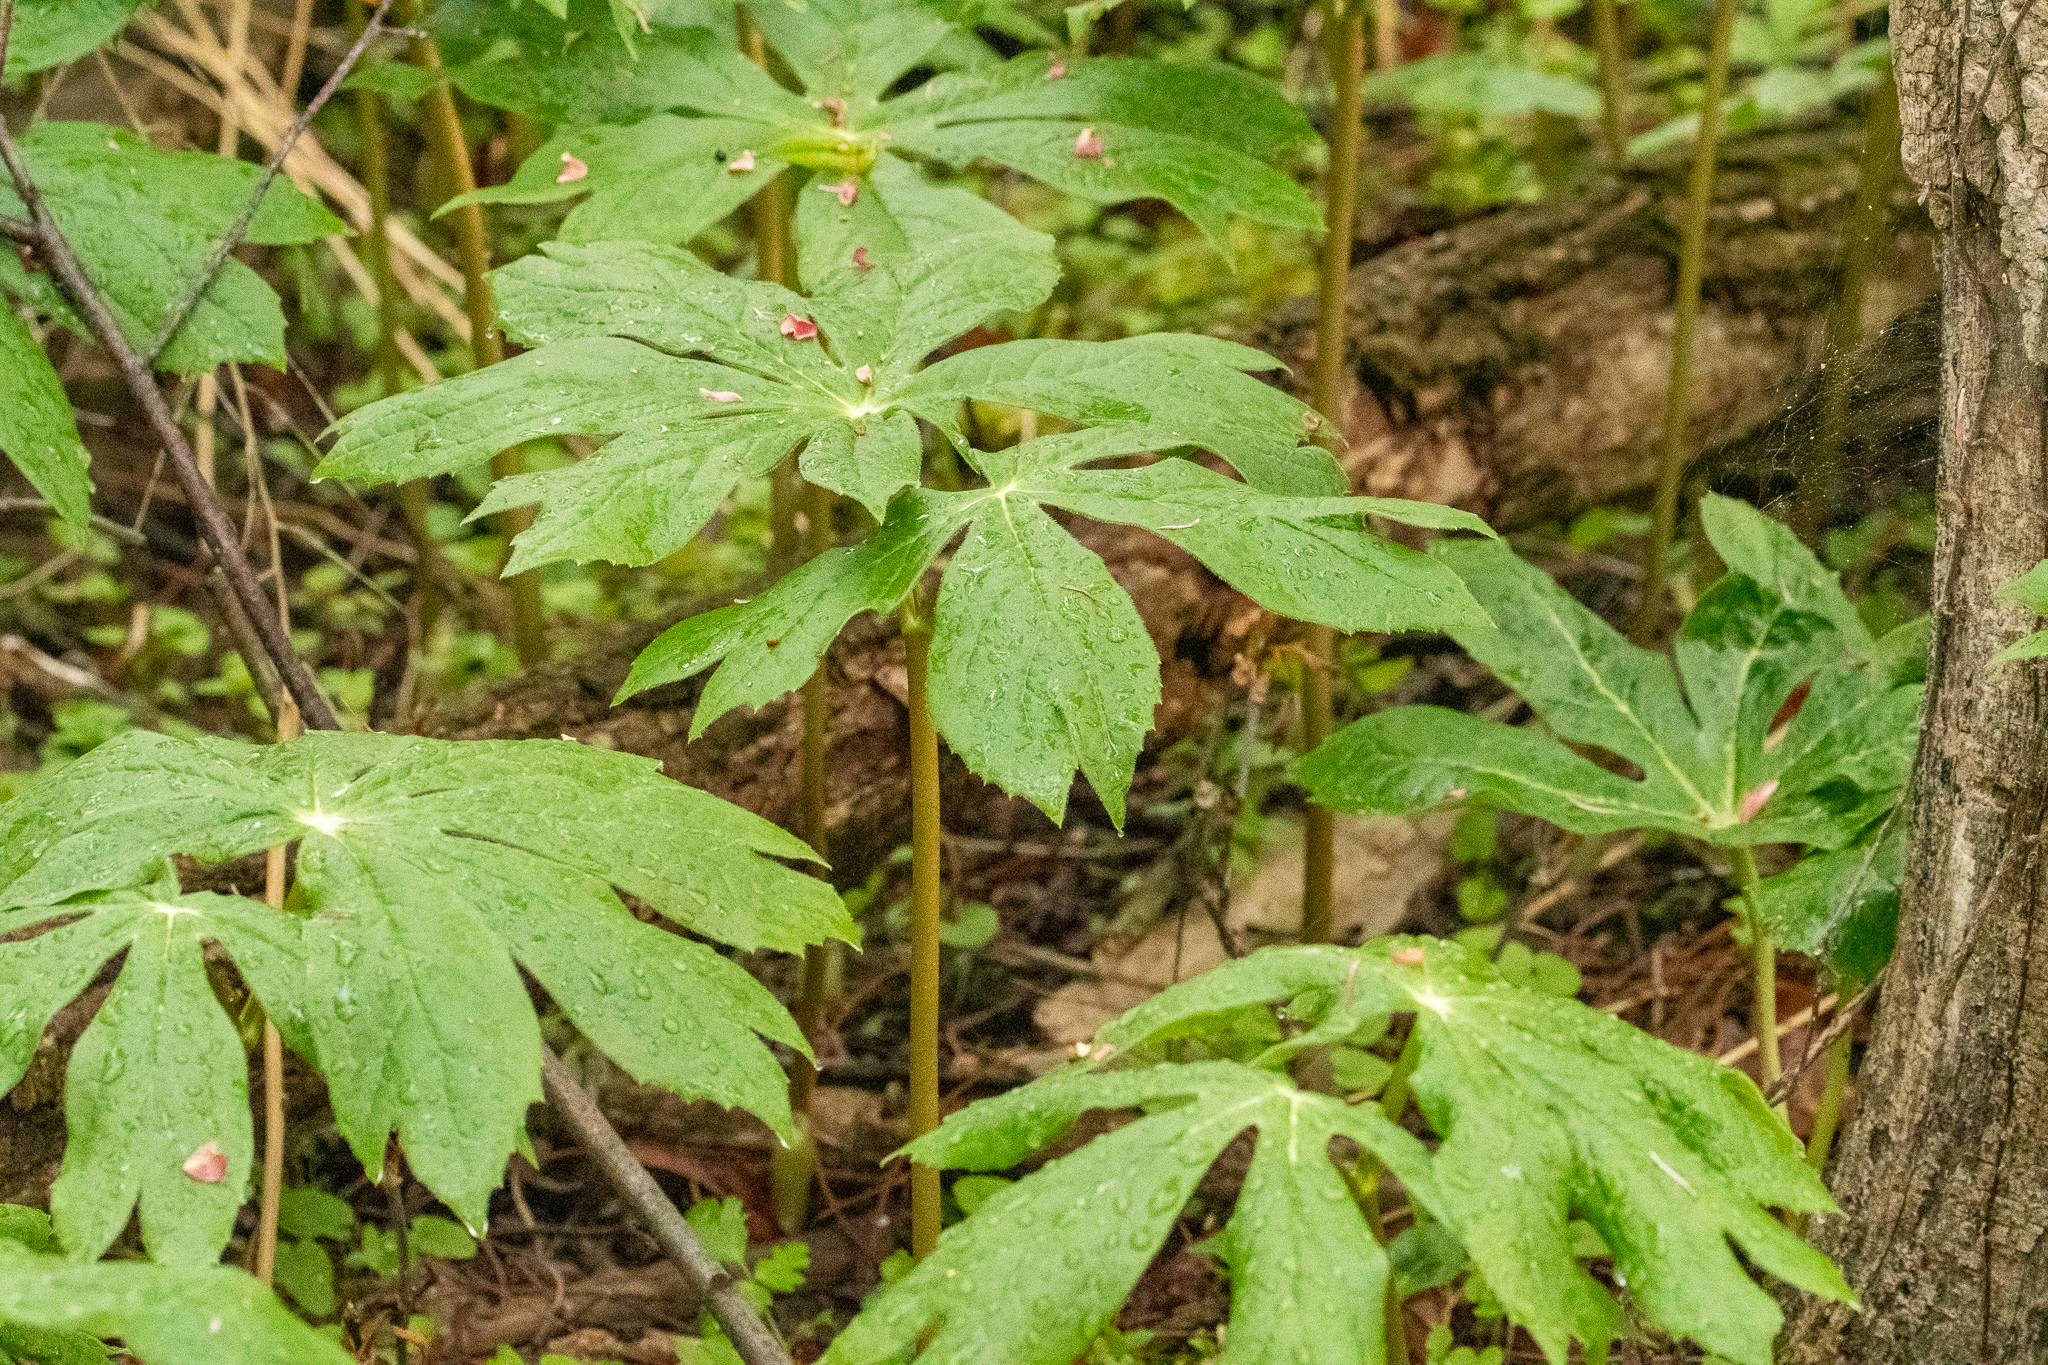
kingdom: Plantae
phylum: Tracheophyta
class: Magnoliopsida
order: Ranunculales
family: Berberidaceae
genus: Podophyllum
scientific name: Podophyllum peltatum
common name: Wild mandrake
